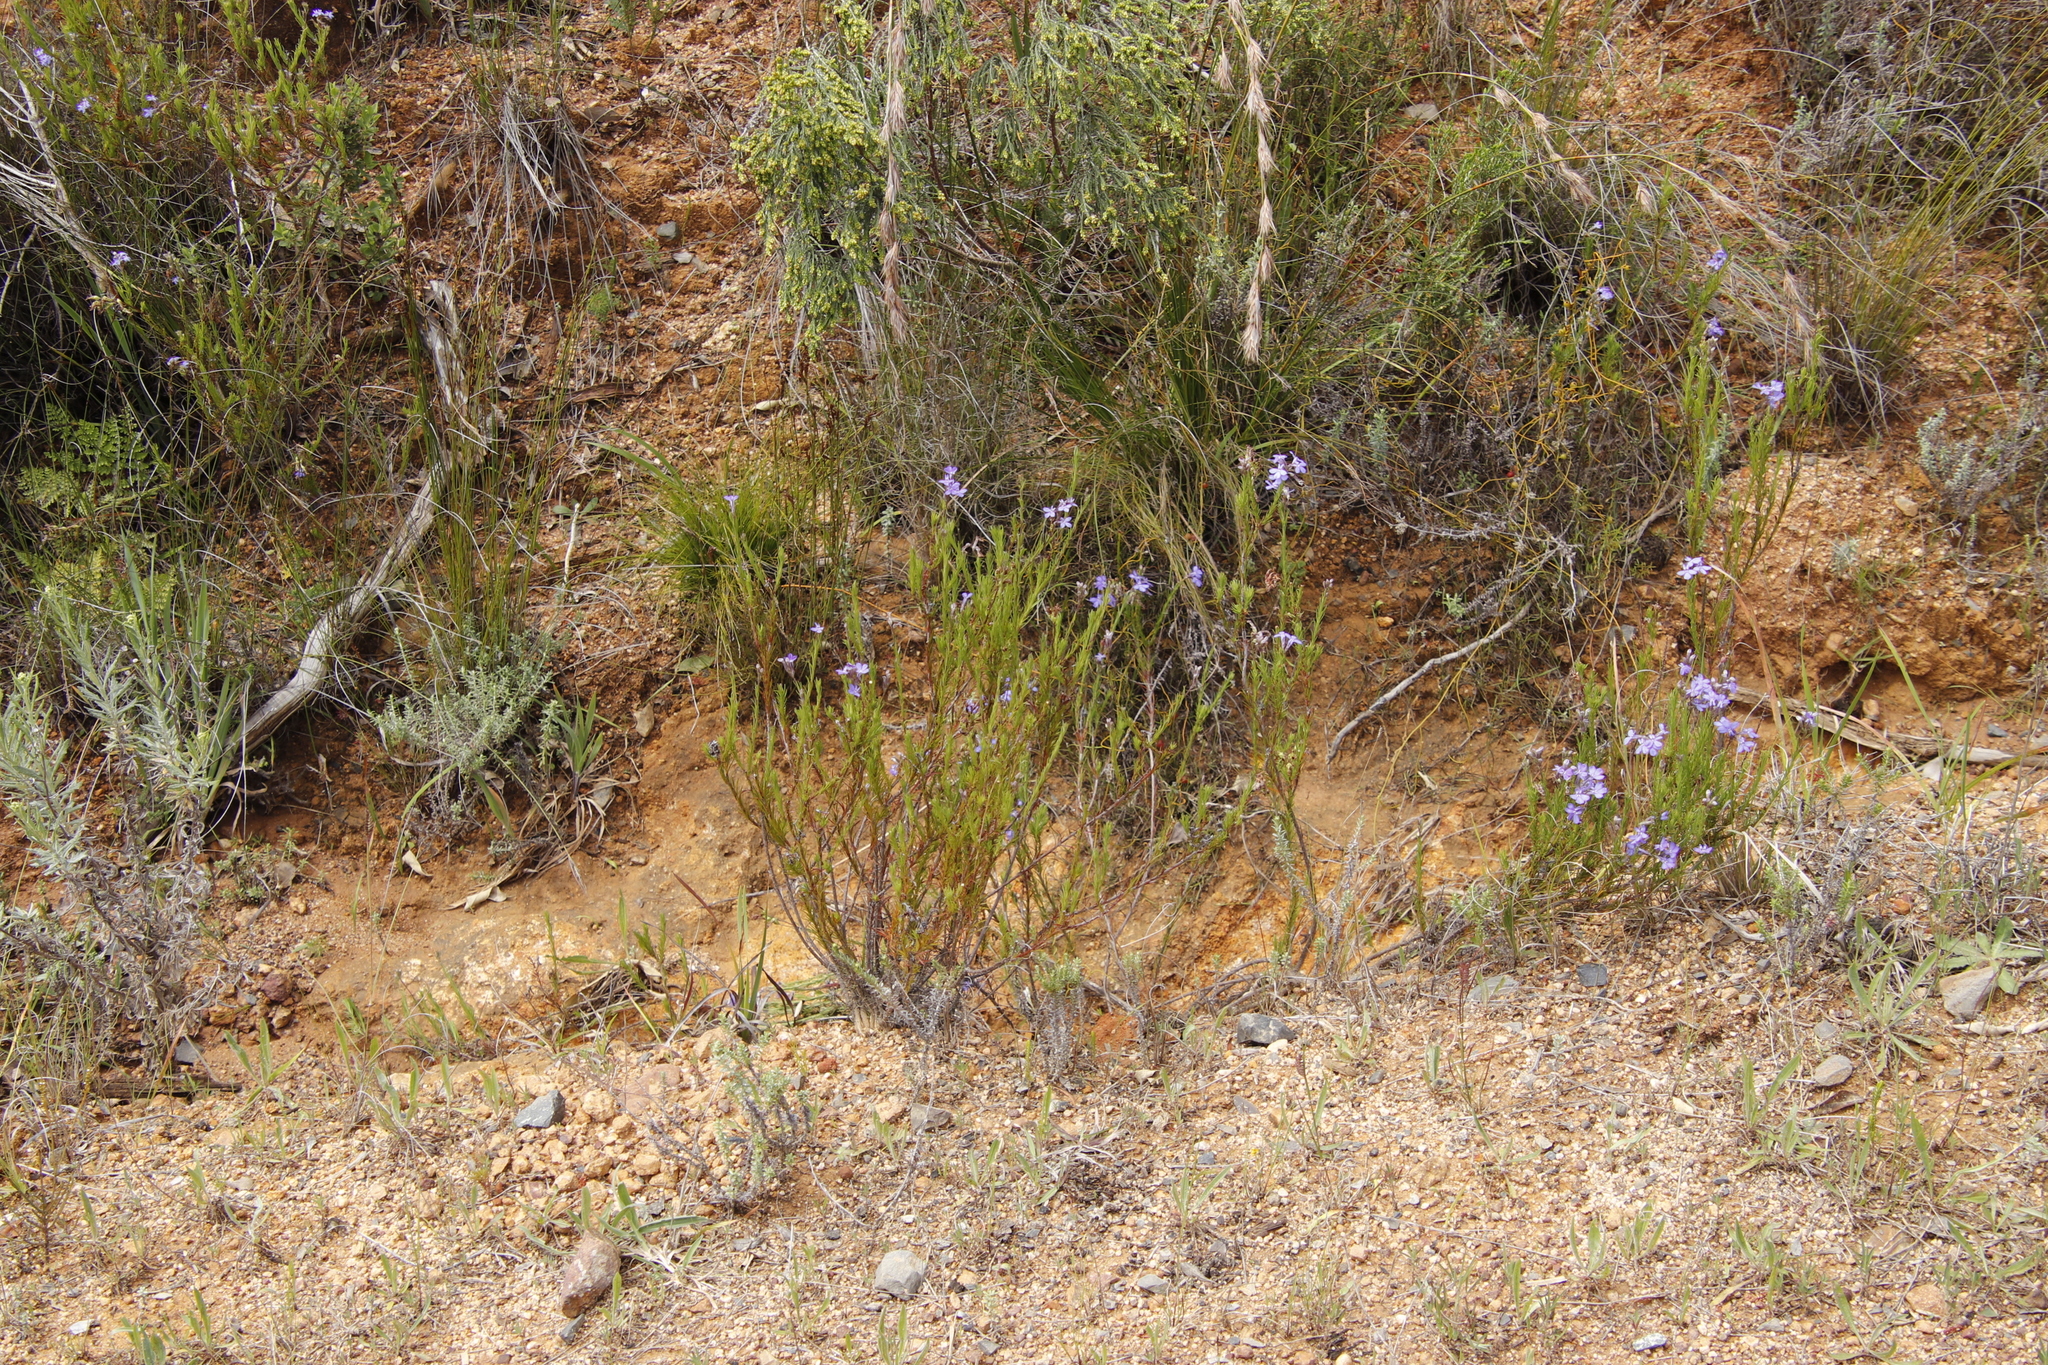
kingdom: Plantae
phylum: Tracheophyta
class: Magnoliopsida
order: Asterales
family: Campanulaceae
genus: Lobelia
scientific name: Lobelia pinifolia
